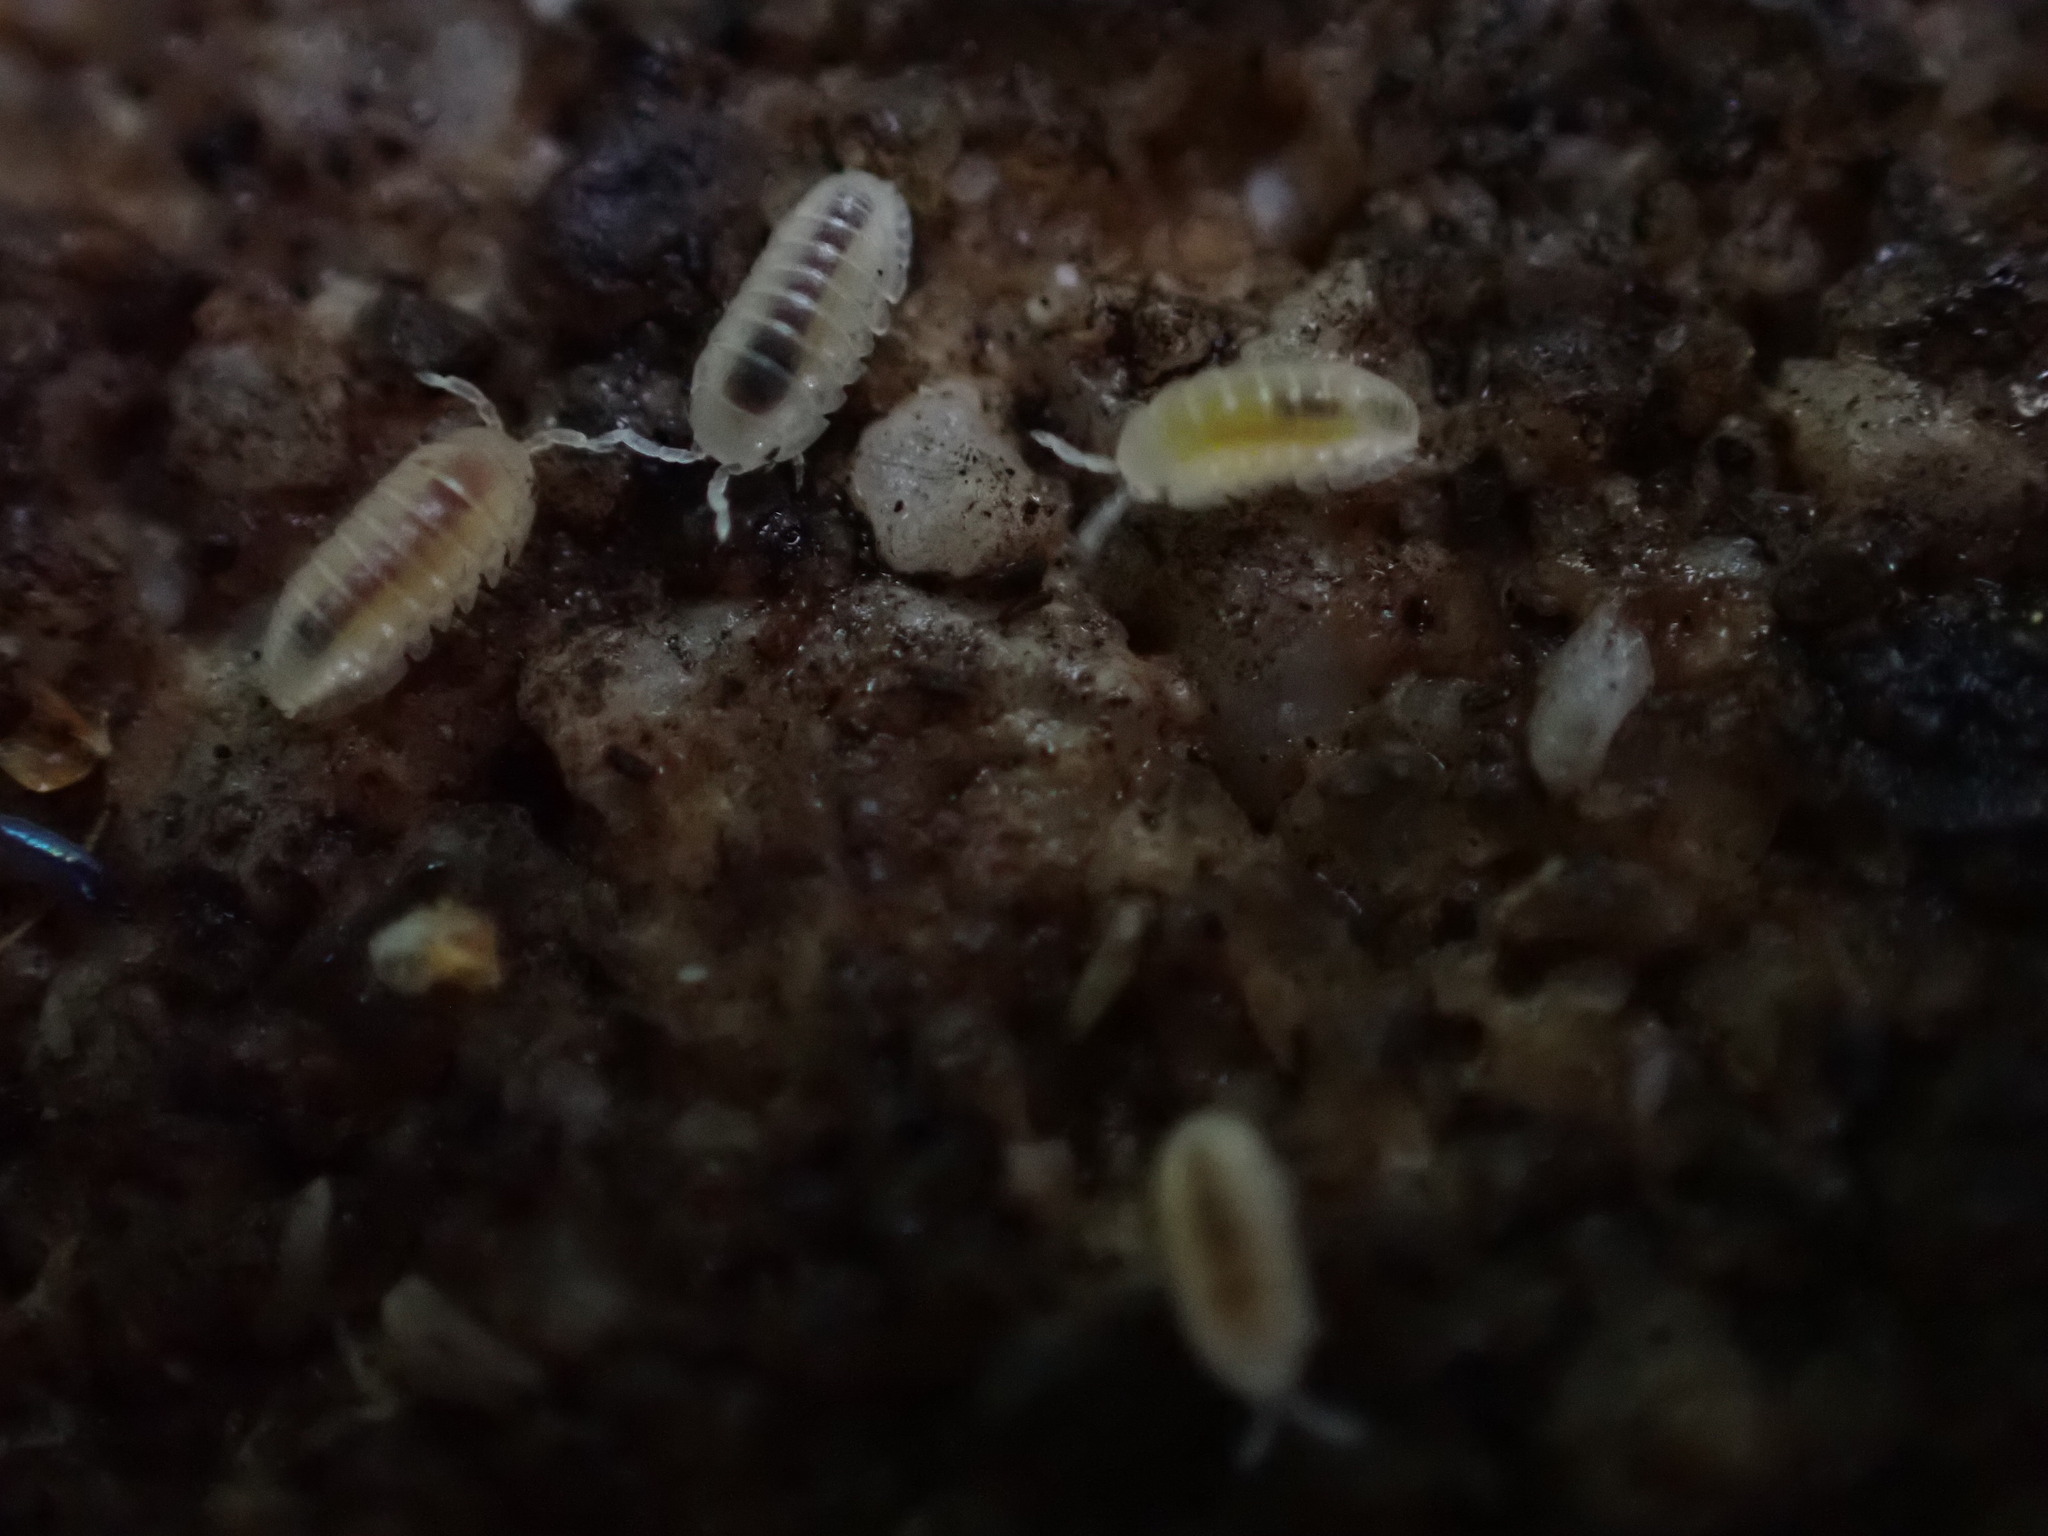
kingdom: Animalia
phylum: Arthropoda
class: Malacostraca
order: Isopoda
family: Armadillidiidae
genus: Armadillidium
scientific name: Armadillidium vulgare
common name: Common pill woodlouse
